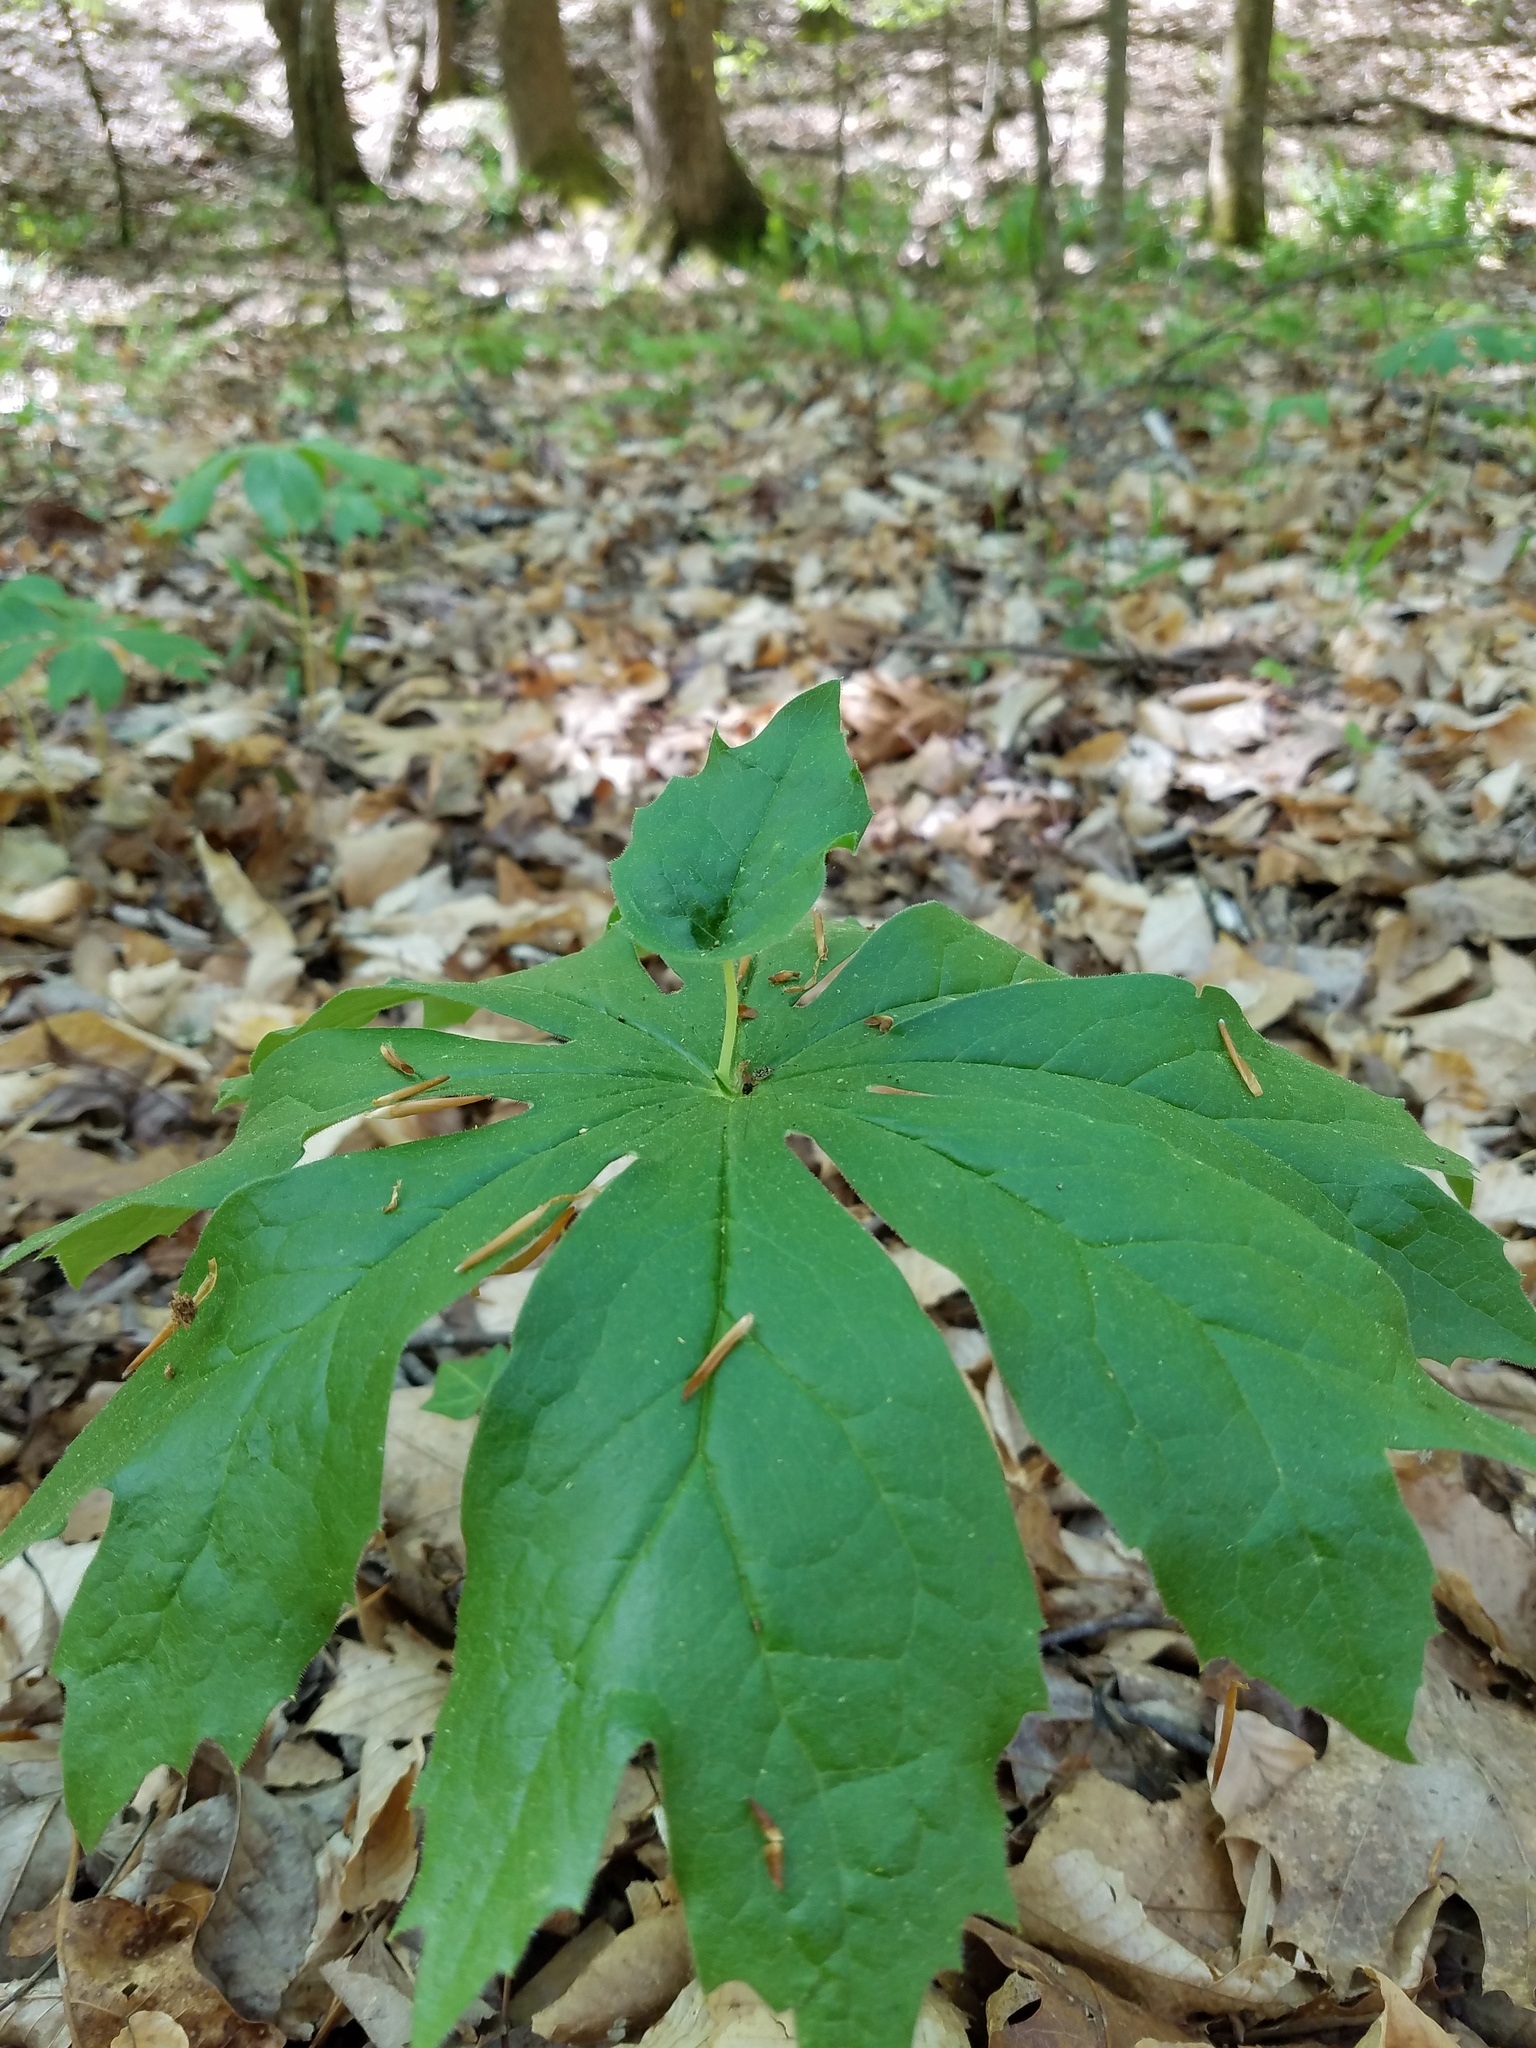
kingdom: Plantae
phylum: Tracheophyta
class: Magnoliopsida
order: Ranunculales
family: Berberidaceae
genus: Podophyllum
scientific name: Podophyllum peltatum
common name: Wild mandrake
